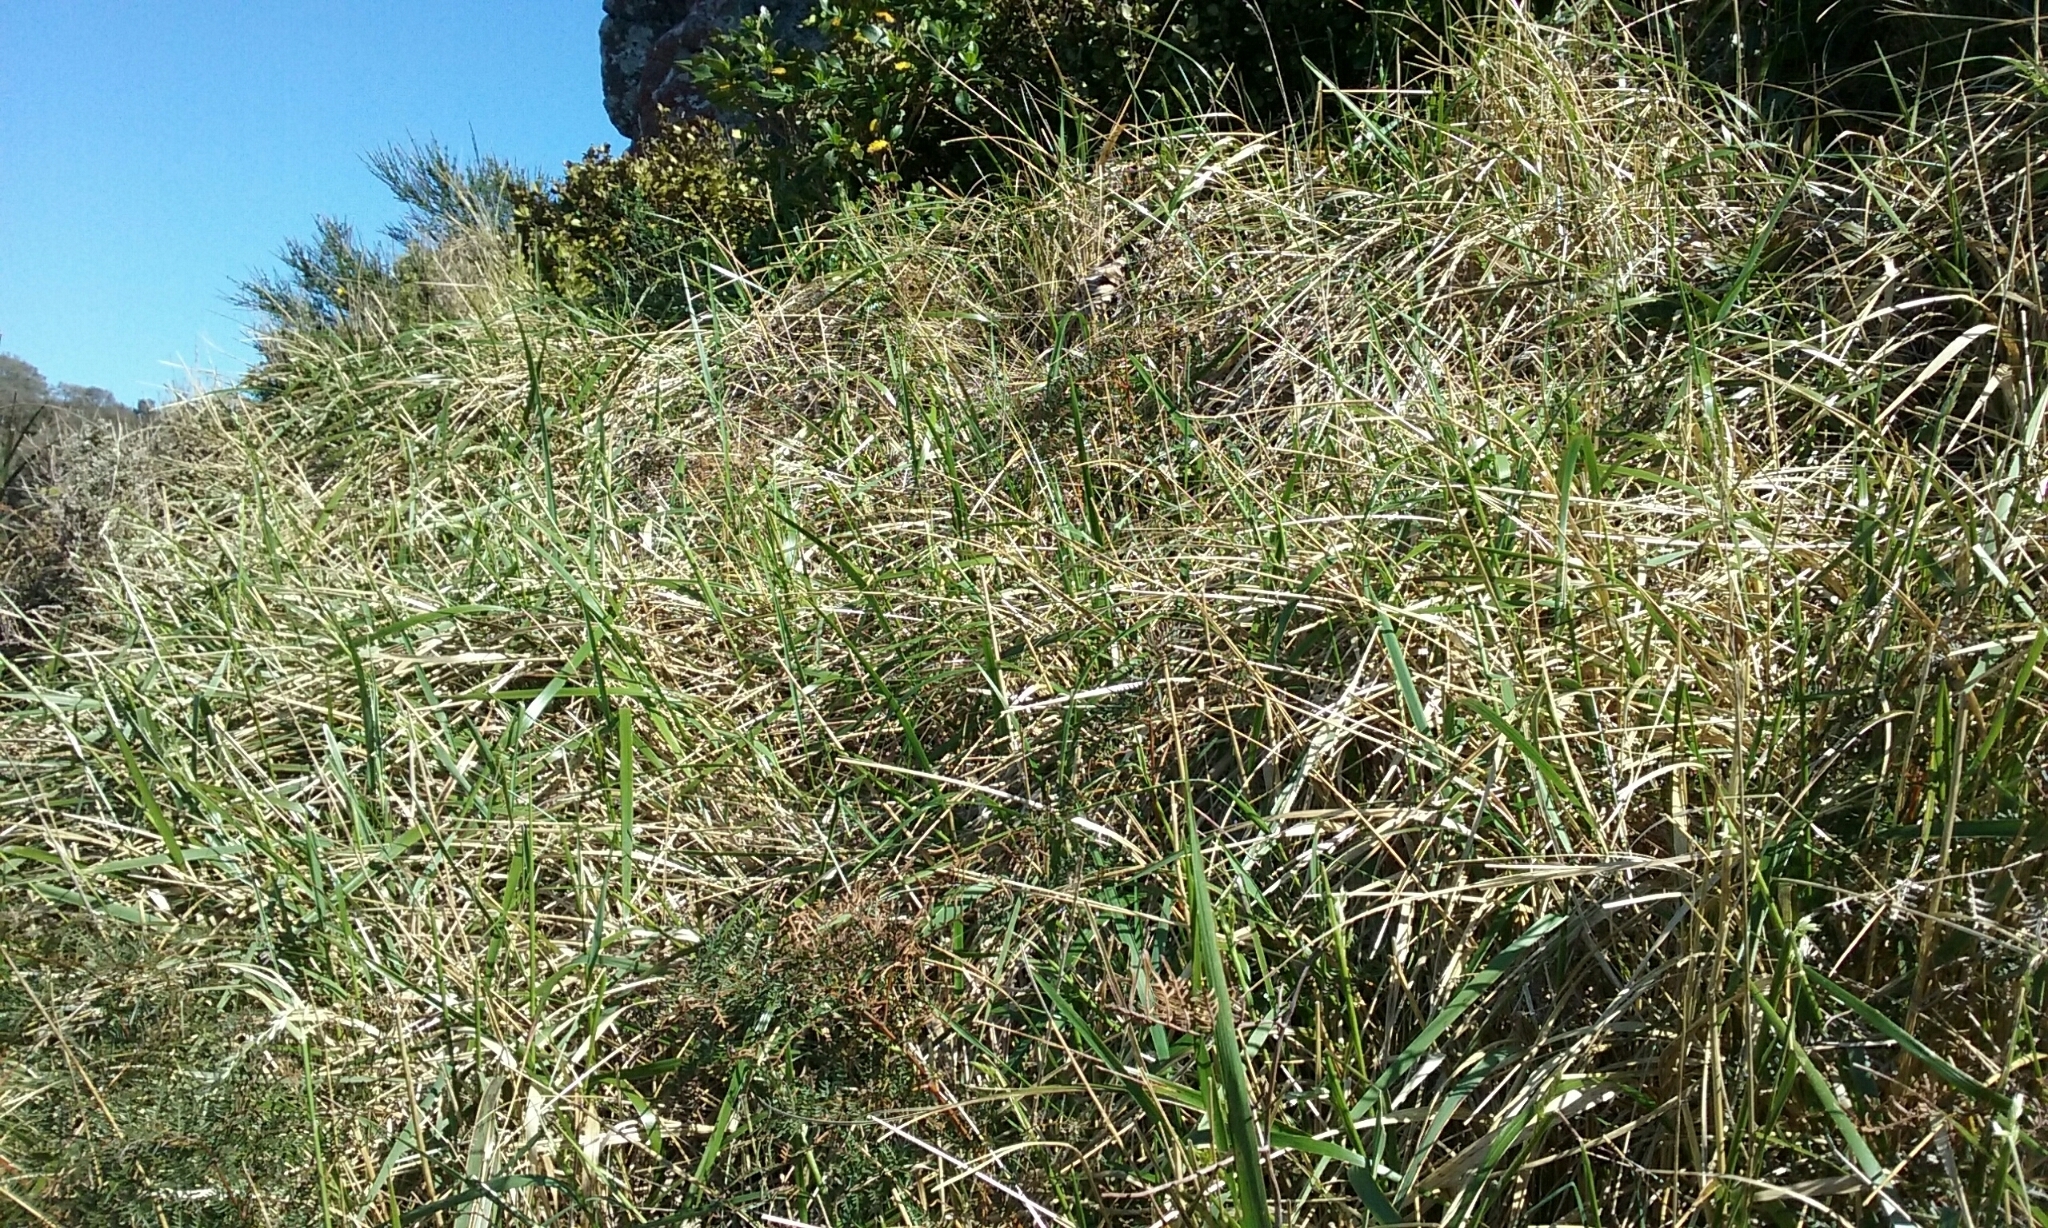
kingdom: Plantae
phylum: Tracheophyta
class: Liliopsida
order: Poales
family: Poaceae
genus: Anthoxanthum
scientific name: Anthoxanthum redolens
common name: Sweet holy grass
